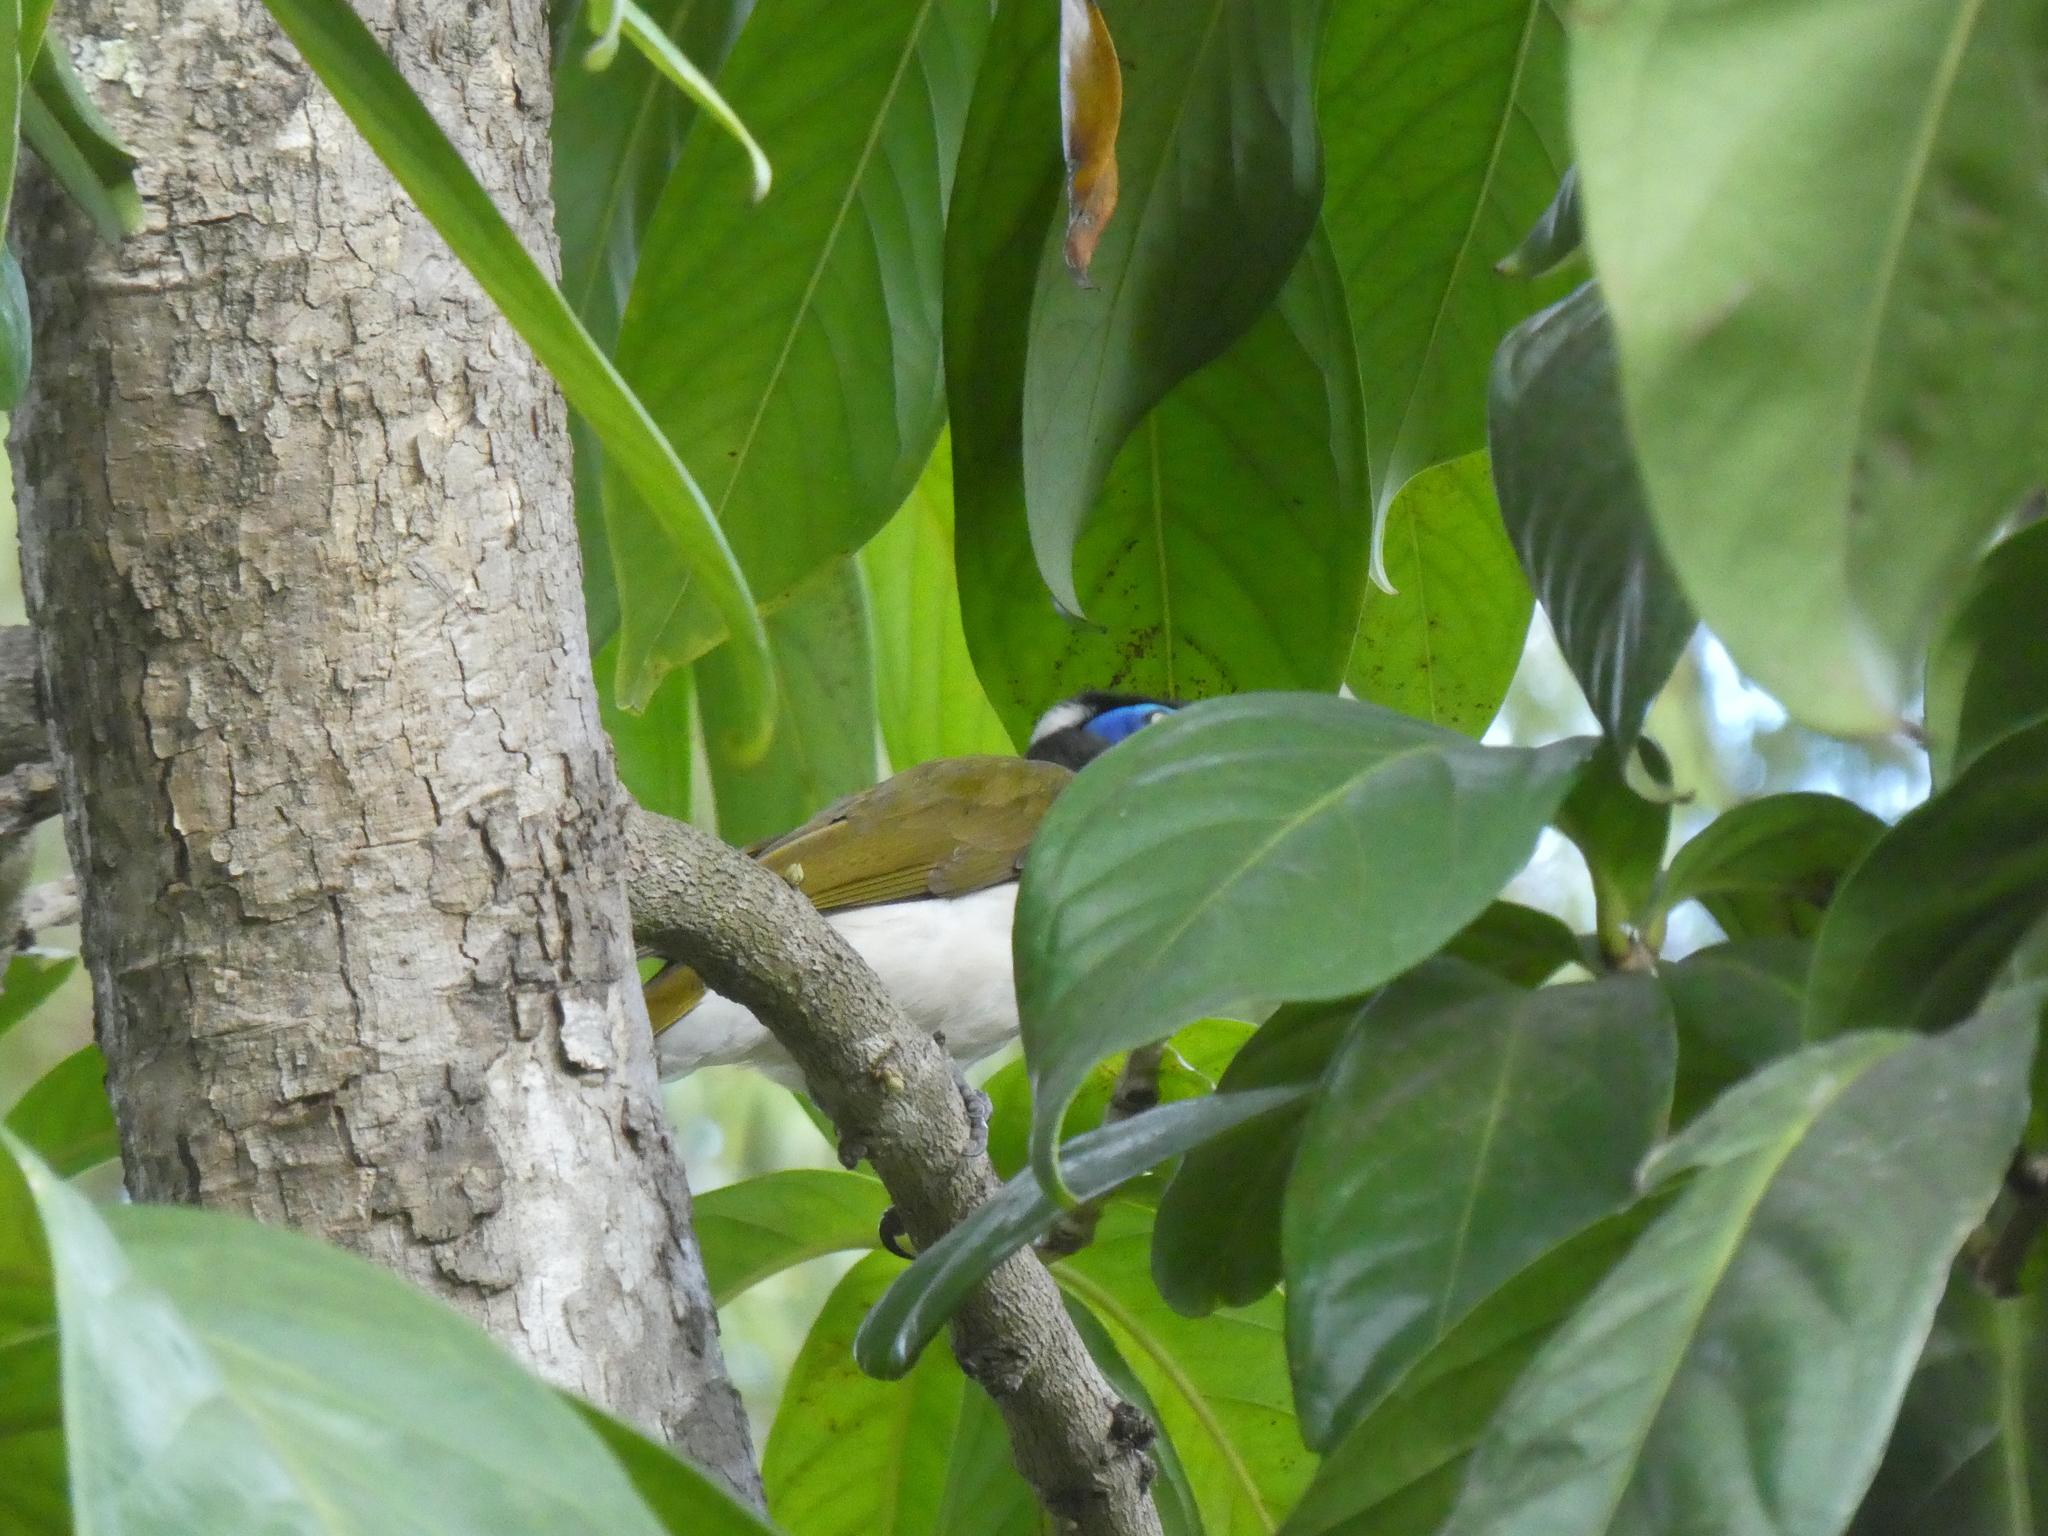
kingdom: Animalia
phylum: Chordata
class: Aves
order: Passeriformes
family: Meliphagidae
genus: Entomyzon
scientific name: Entomyzon cyanotis
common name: Blue-faced honeyeater
